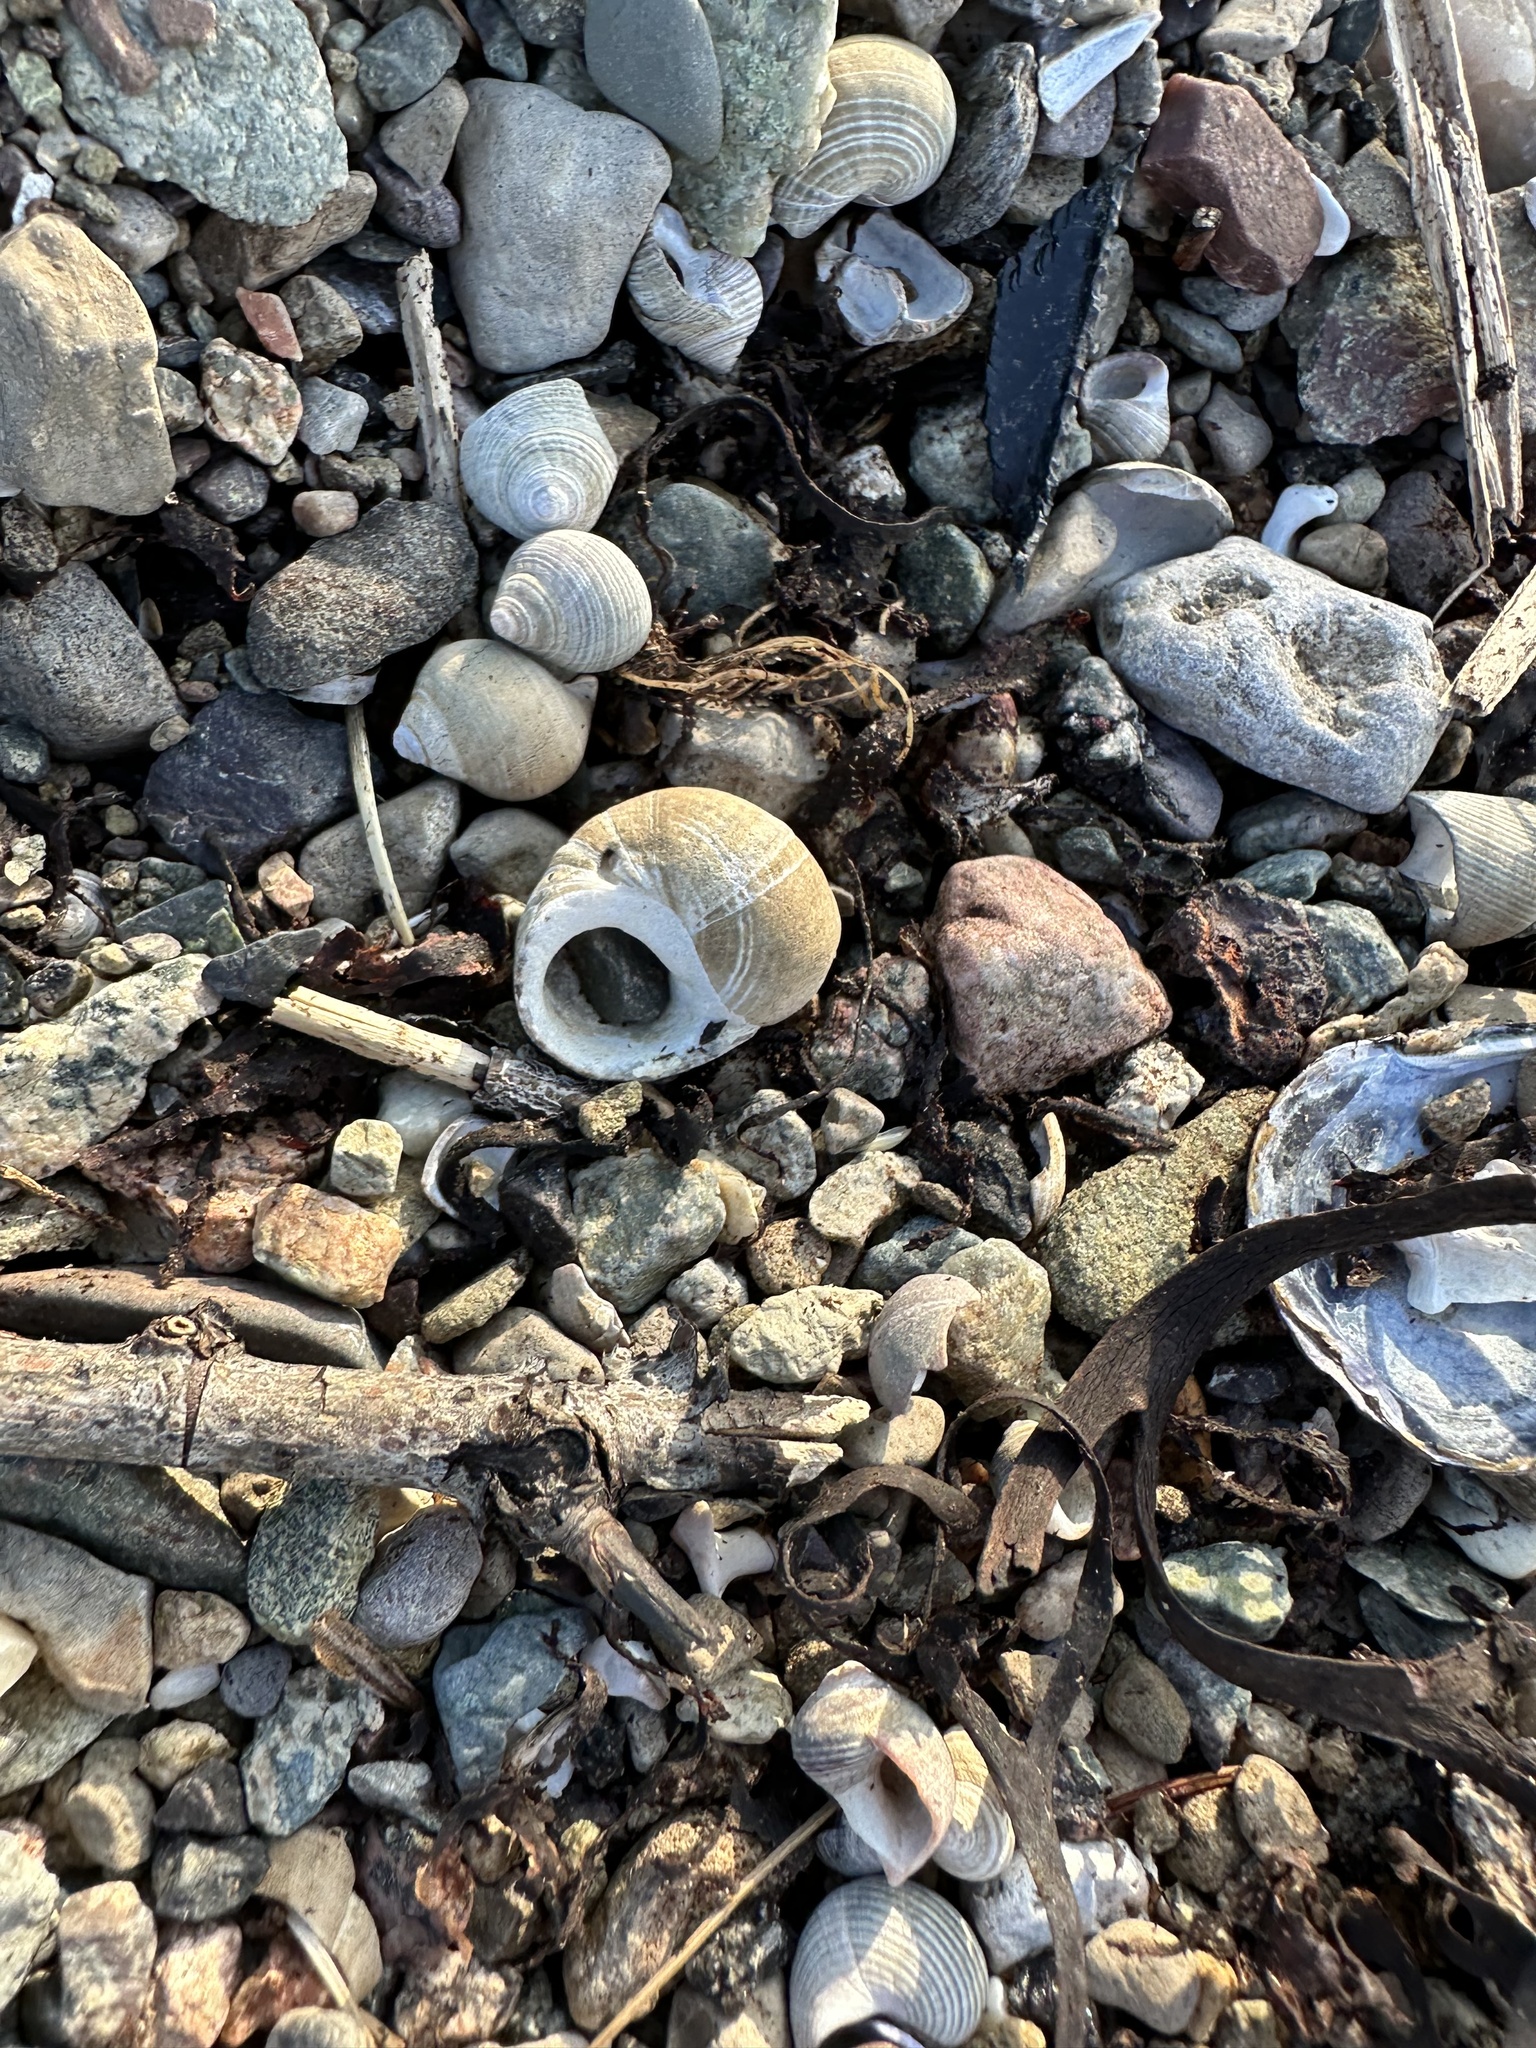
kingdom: Animalia
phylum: Mollusca
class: Gastropoda
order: Littorinimorpha
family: Littorinidae
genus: Littorina
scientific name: Littorina littorea
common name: Common periwinkle
